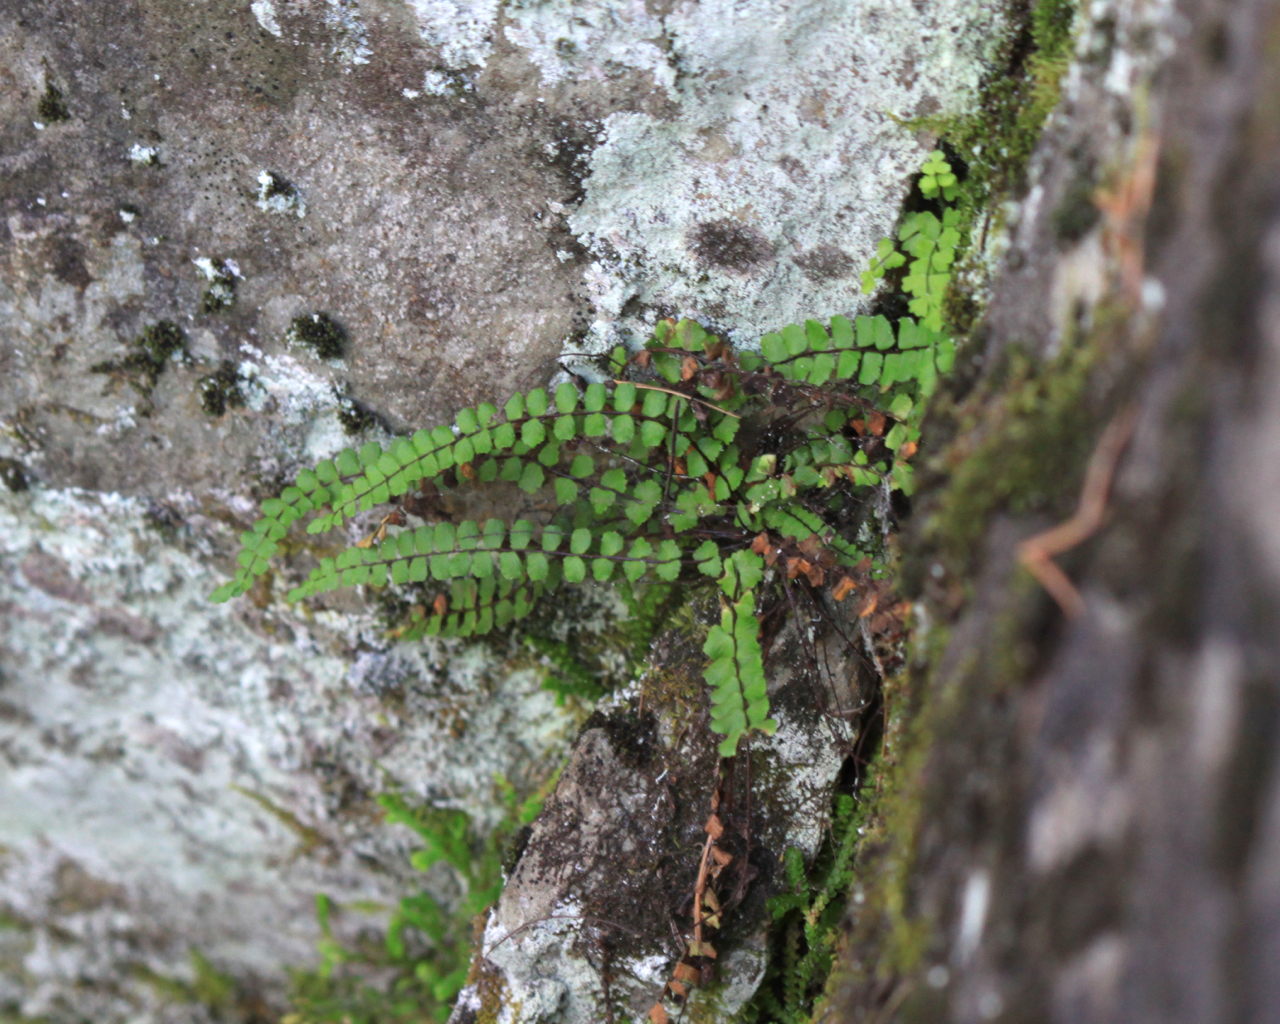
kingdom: Plantae
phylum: Tracheophyta
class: Polypodiopsida
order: Polypodiales
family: Aspleniaceae
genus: Asplenium
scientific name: Asplenium trichomanes
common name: Maidenhair spleenwort
